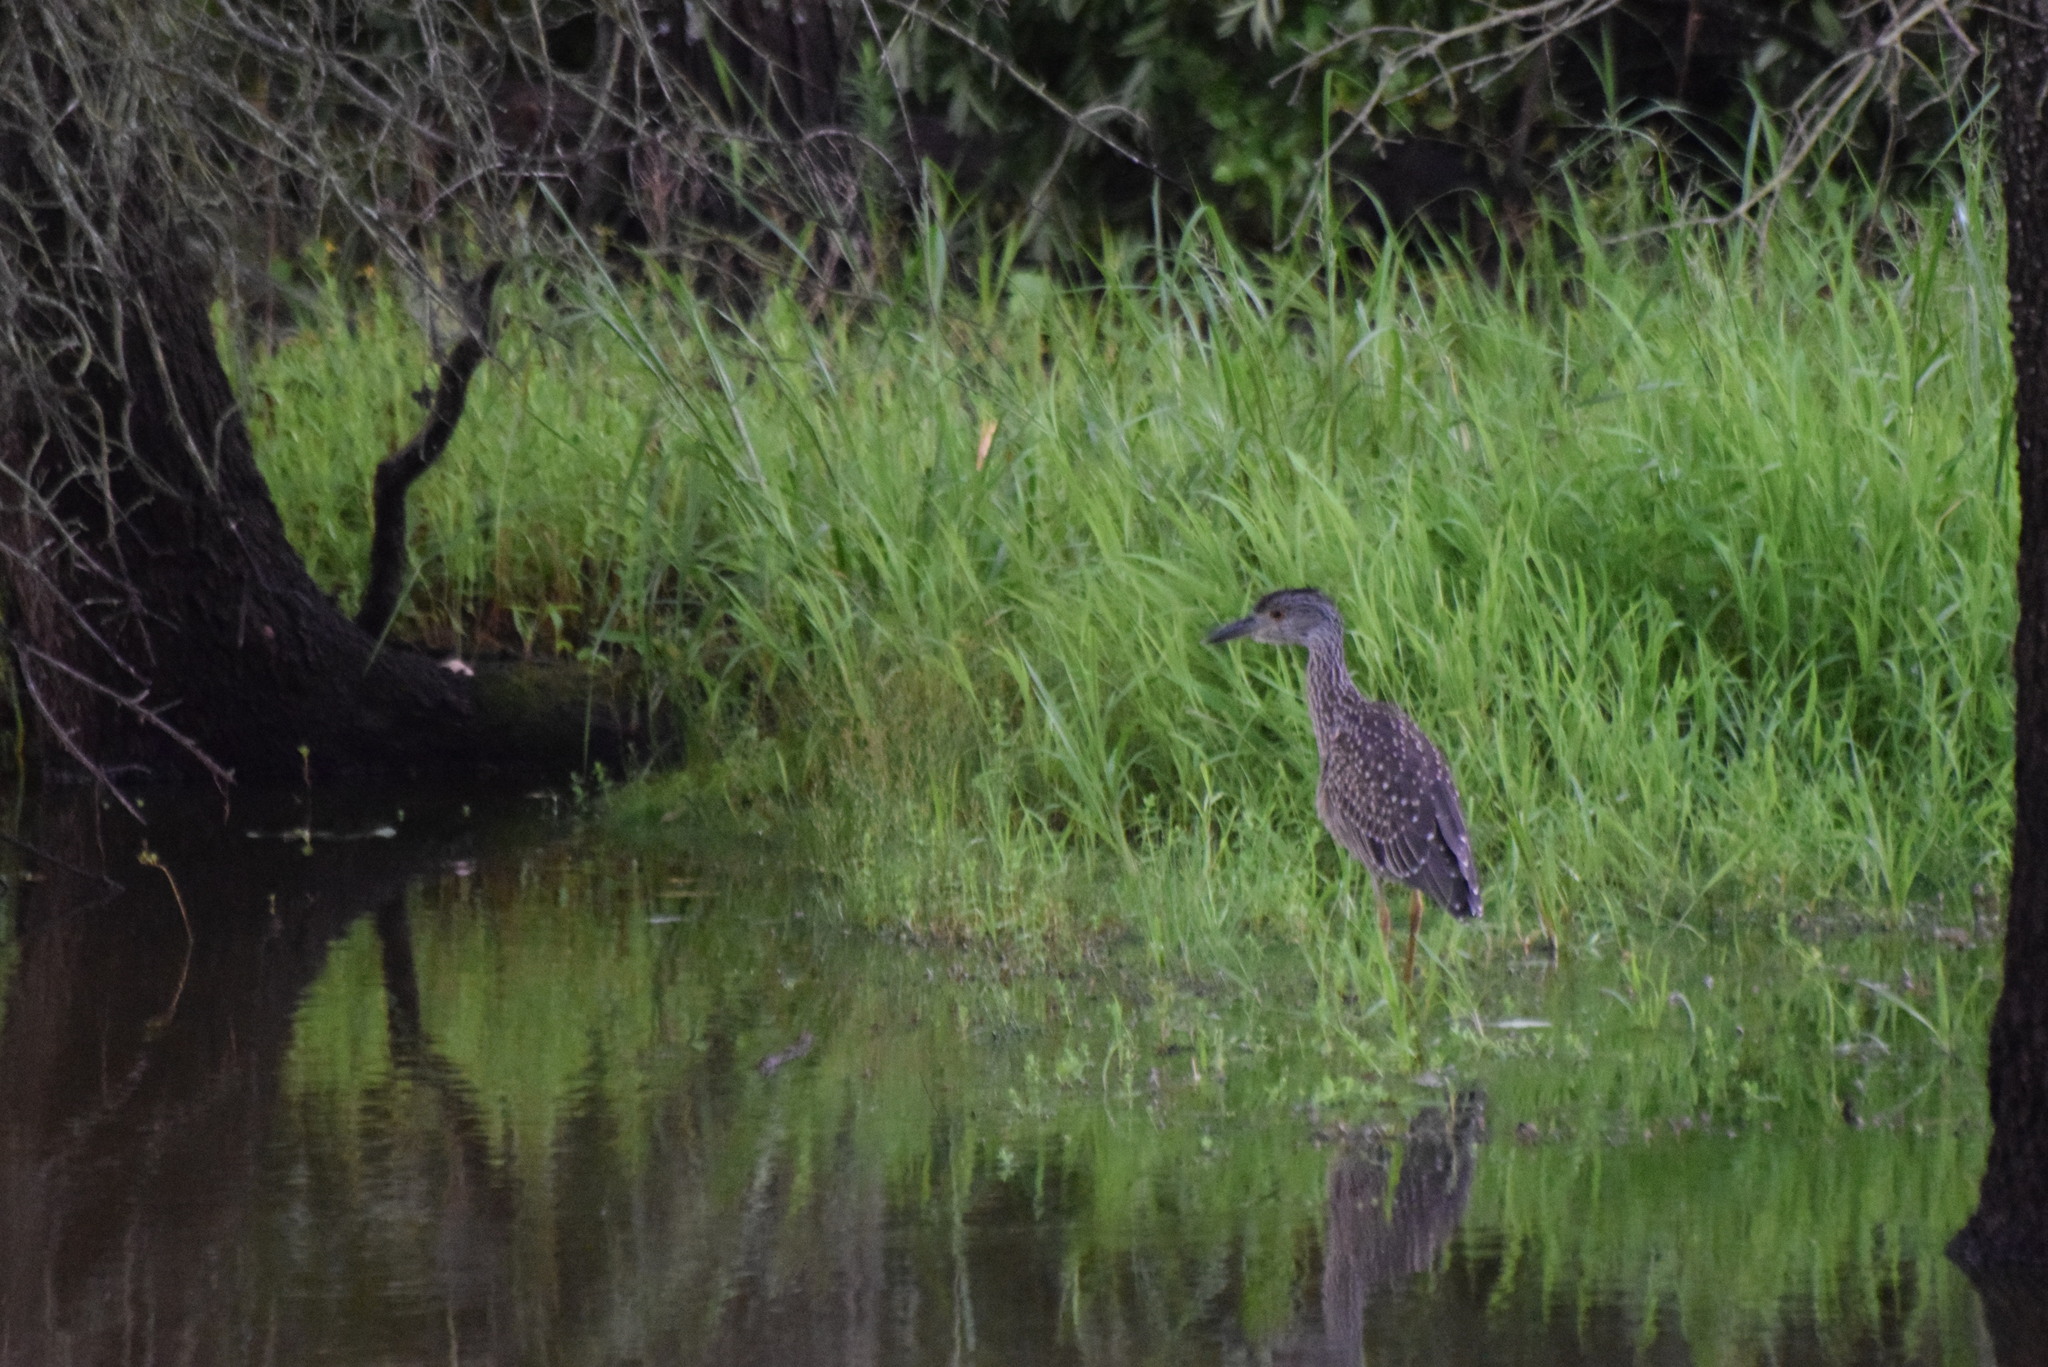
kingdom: Animalia
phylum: Chordata
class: Aves
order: Pelecaniformes
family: Ardeidae
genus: Nyctanassa
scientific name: Nyctanassa violacea
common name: Yellow-crowned night heron
